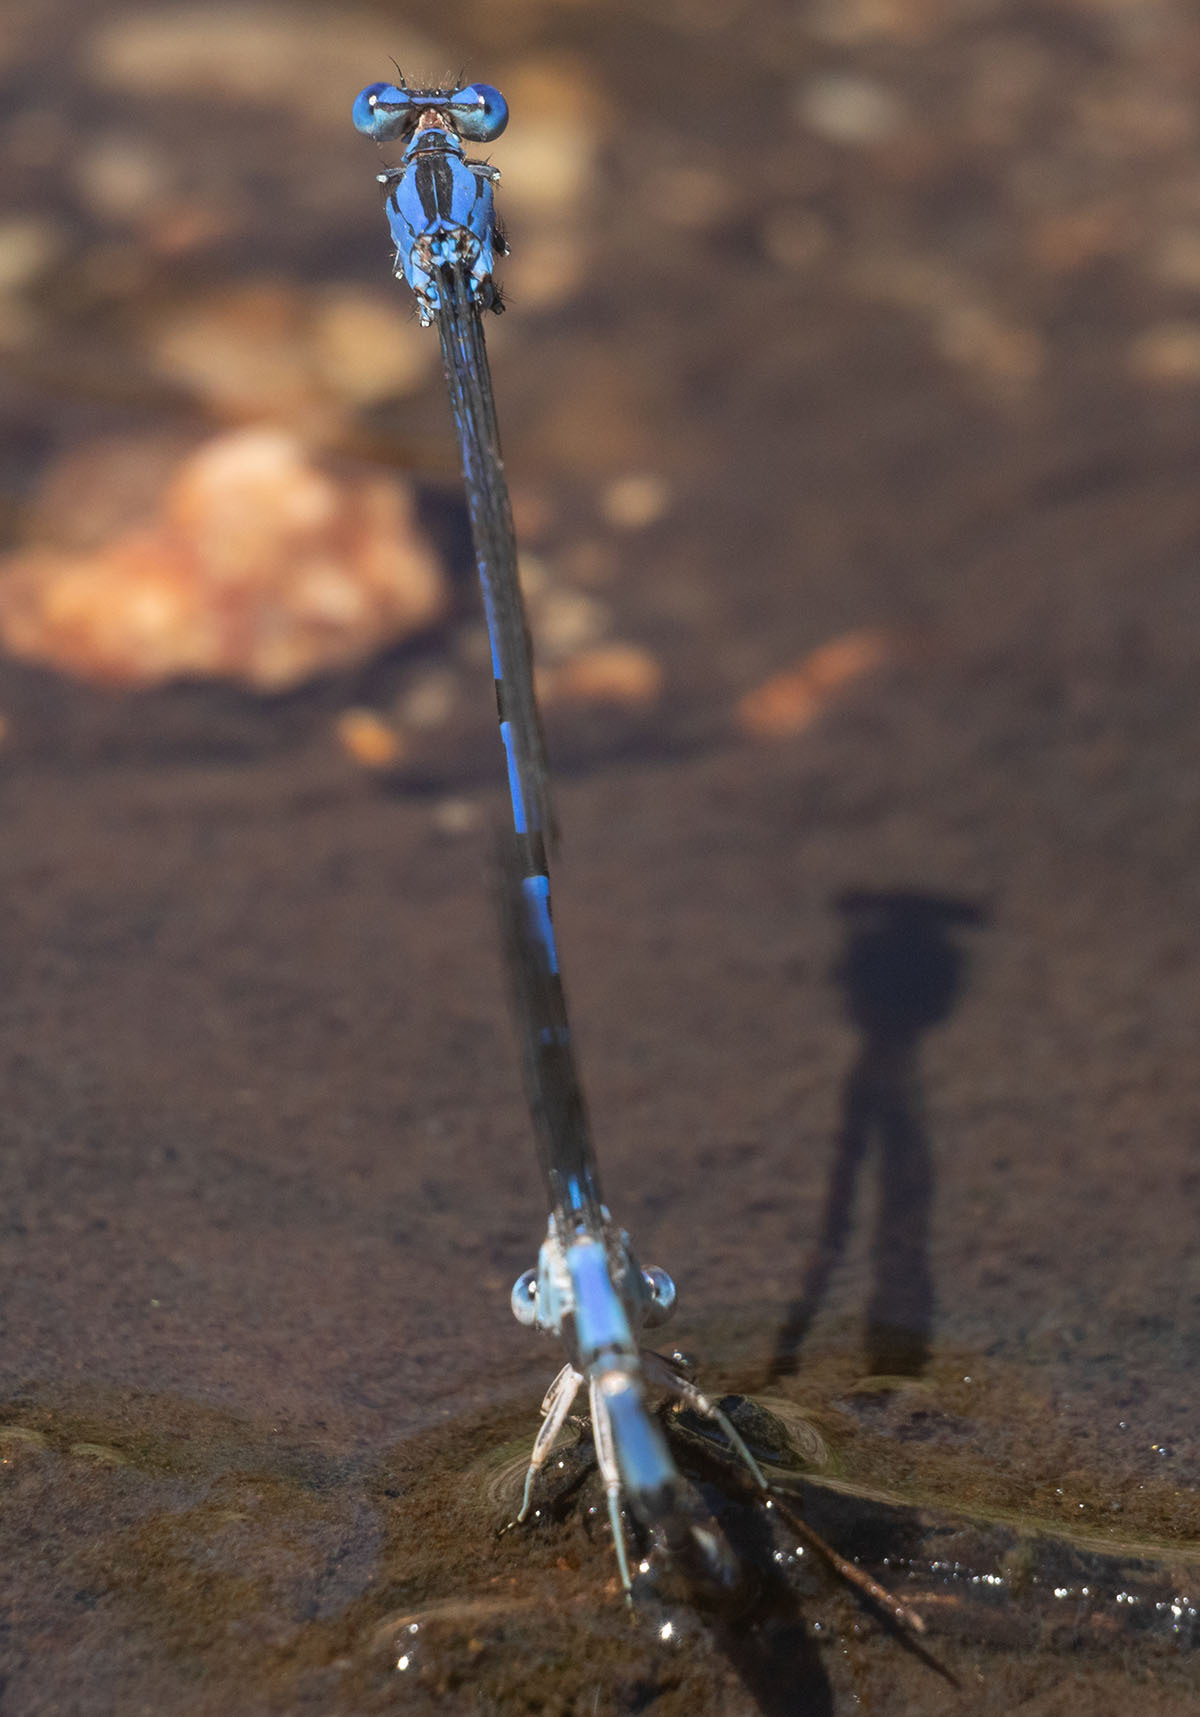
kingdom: Animalia
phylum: Arthropoda
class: Insecta
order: Odonata
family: Coenagrionidae
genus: Argia
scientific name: Argia vivida
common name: Vivid dancer
